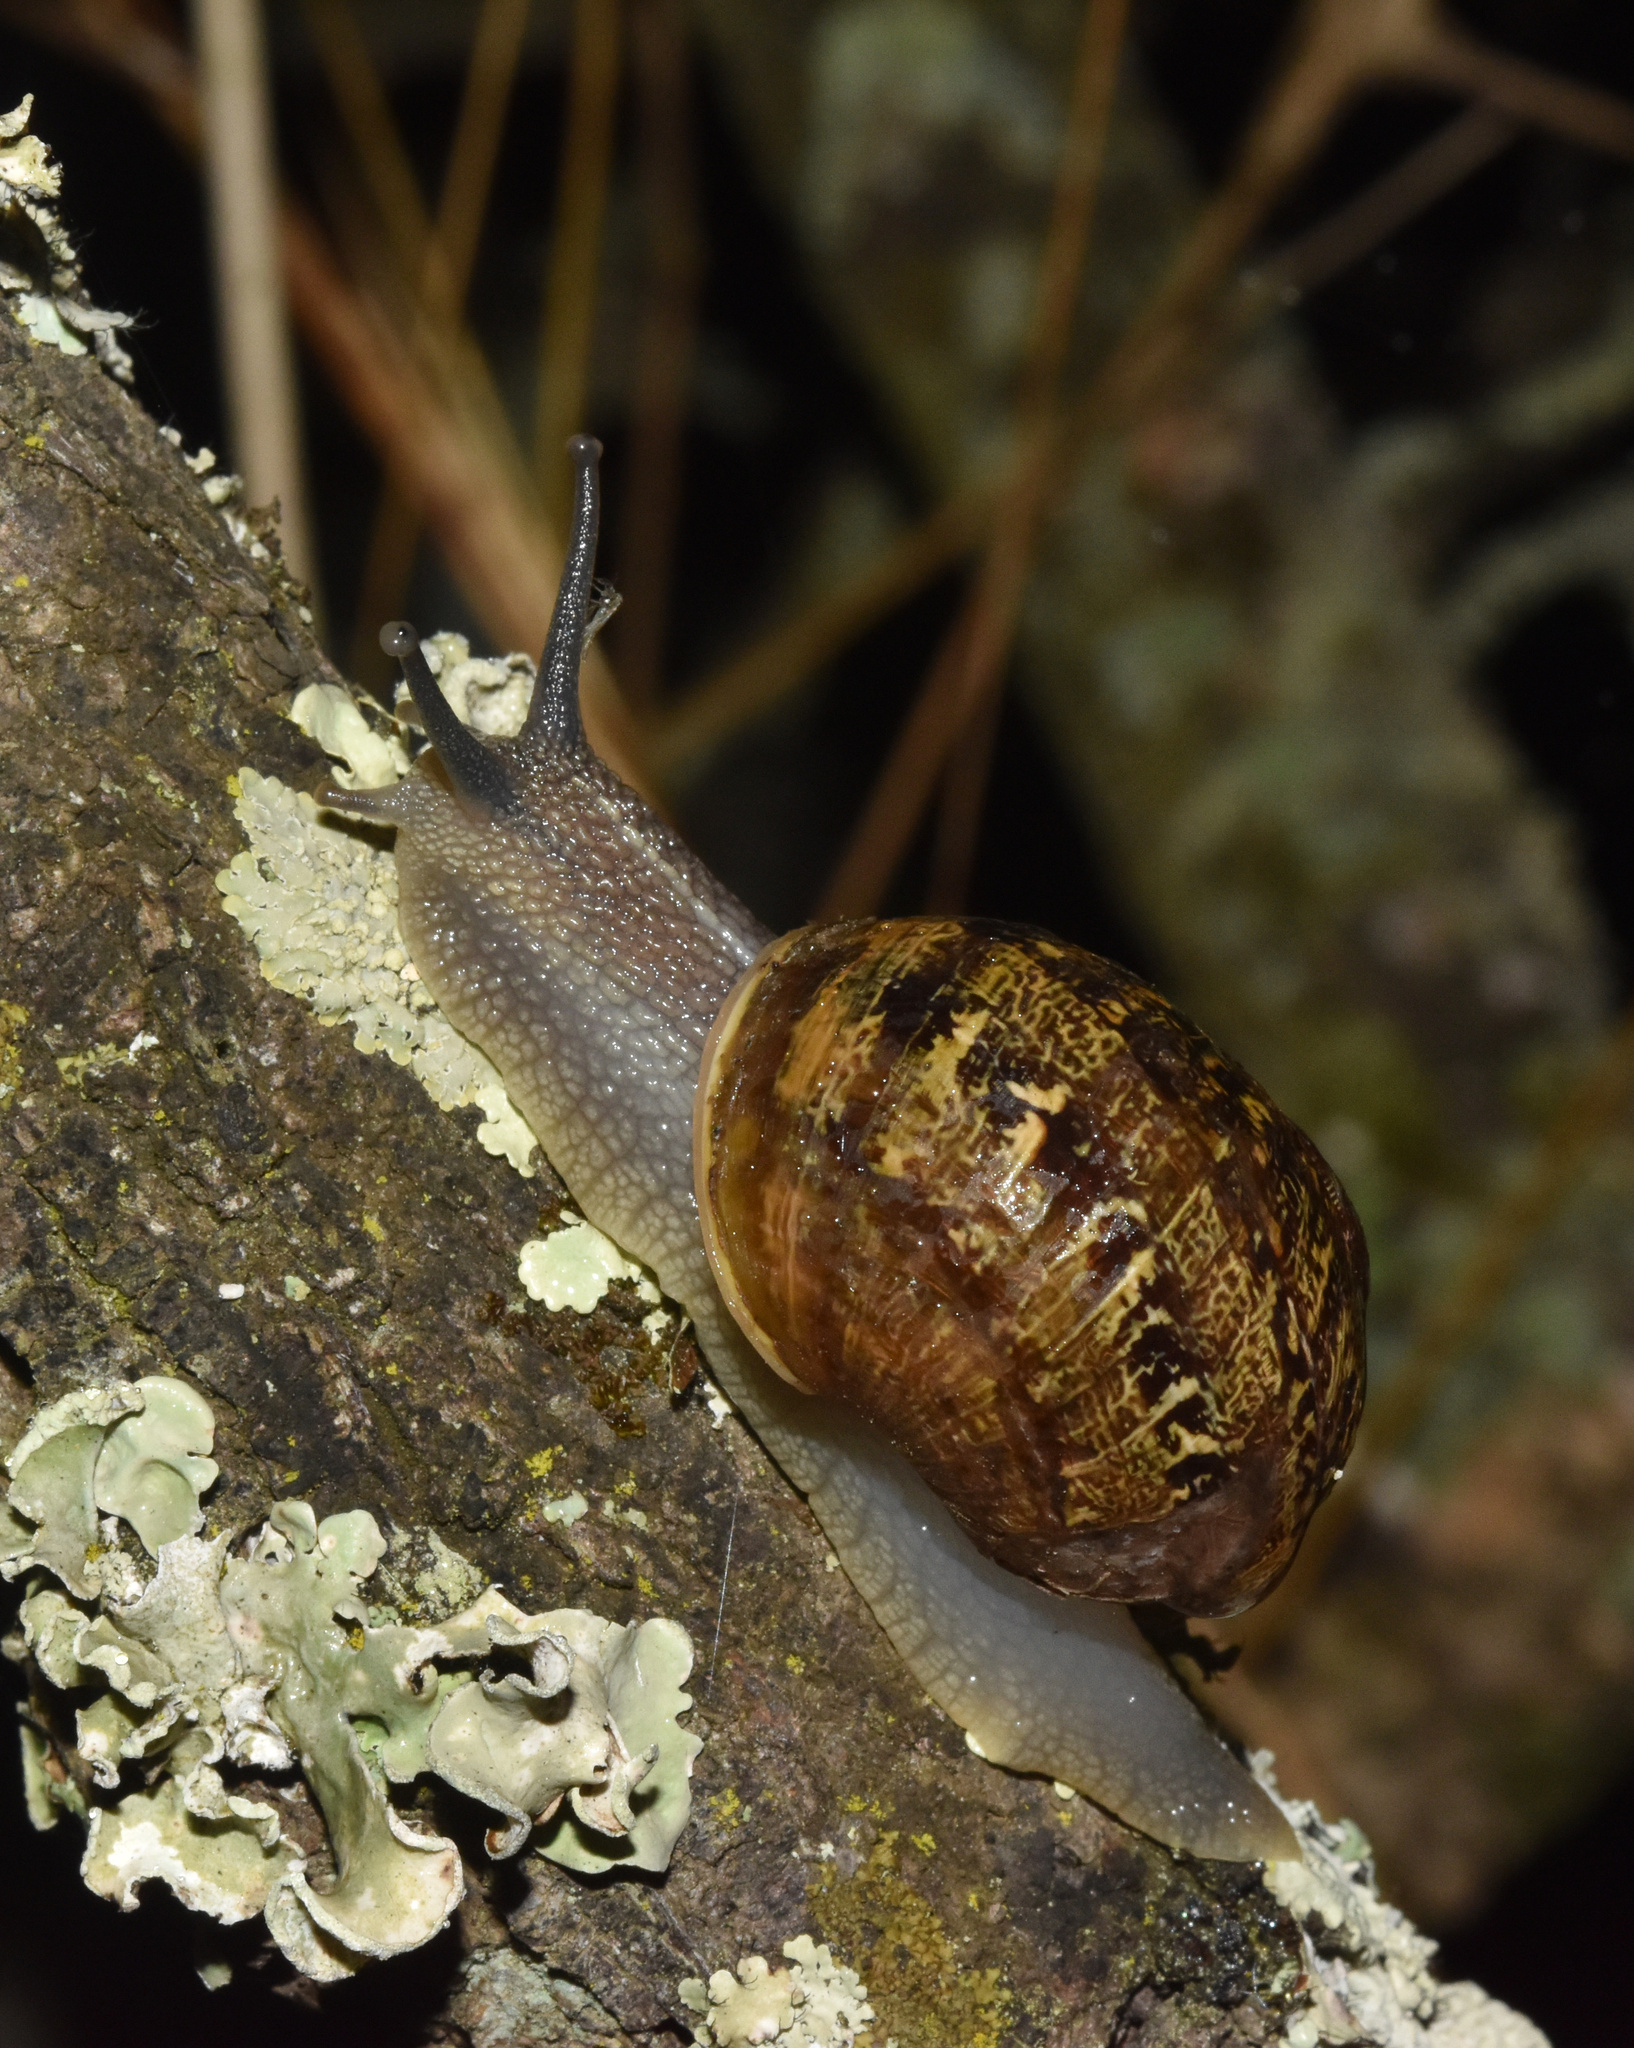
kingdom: Animalia
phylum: Mollusca
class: Gastropoda
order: Stylommatophora
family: Helicidae
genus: Cornu
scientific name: Cornu aspersum
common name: Brown garden snail
